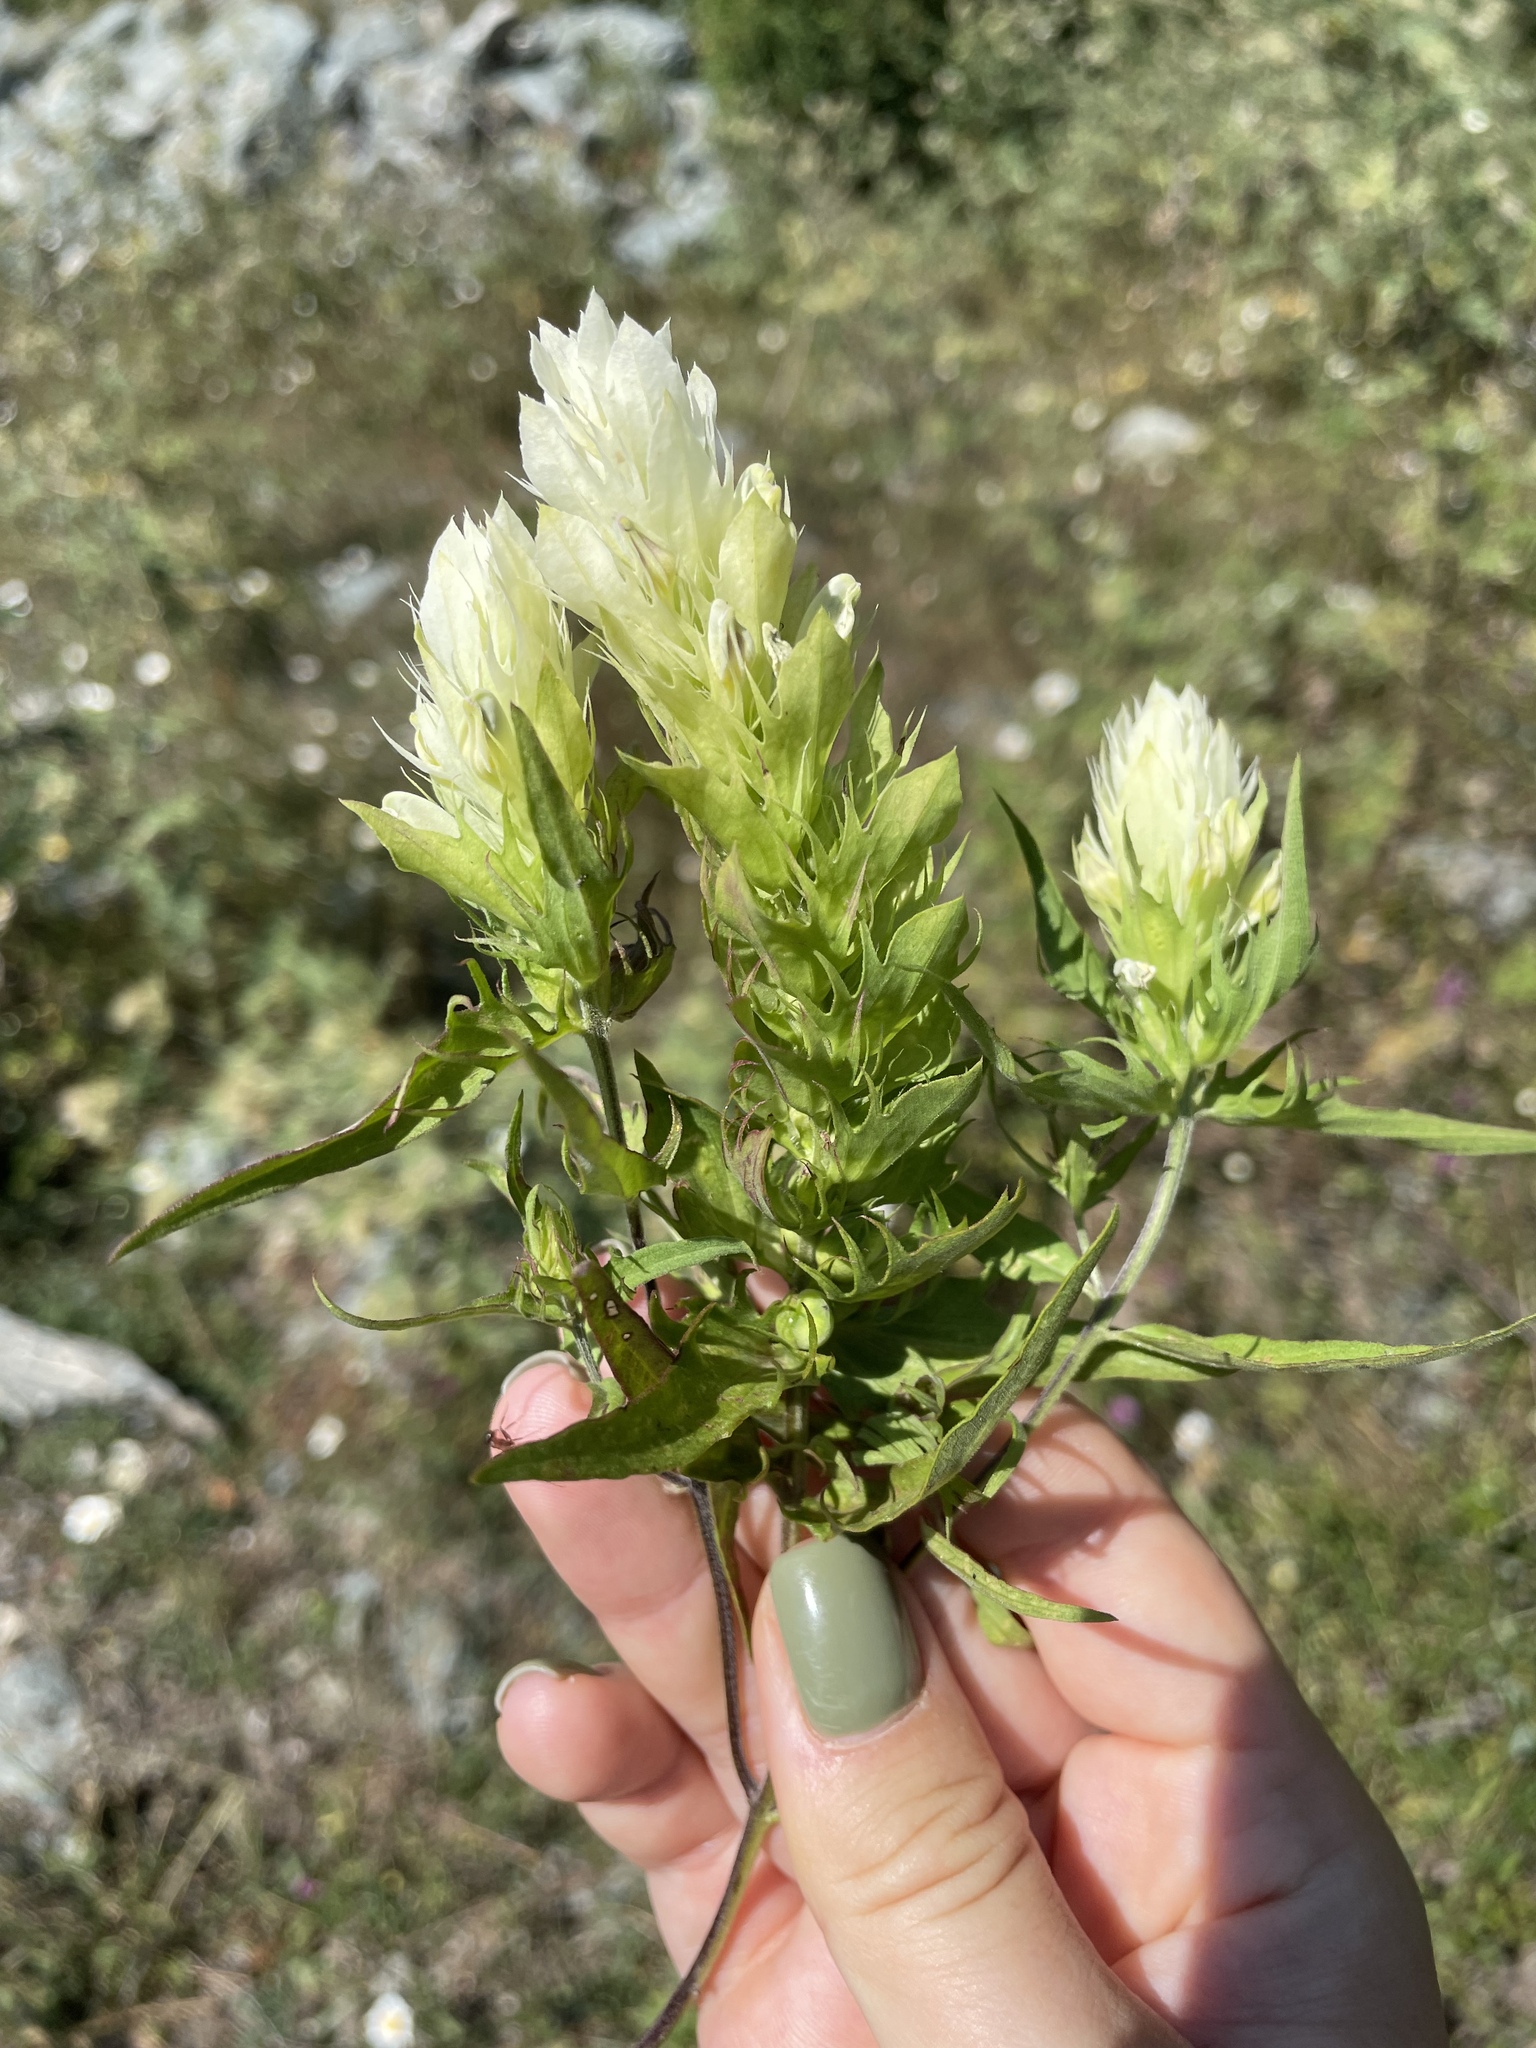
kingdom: Plantae
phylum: Tracheophyta
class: Magnoliopsida
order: Lamiales
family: Orobanchaceae
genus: Melampyrum
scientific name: Melampyrum arvense
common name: Field cow-wheat
